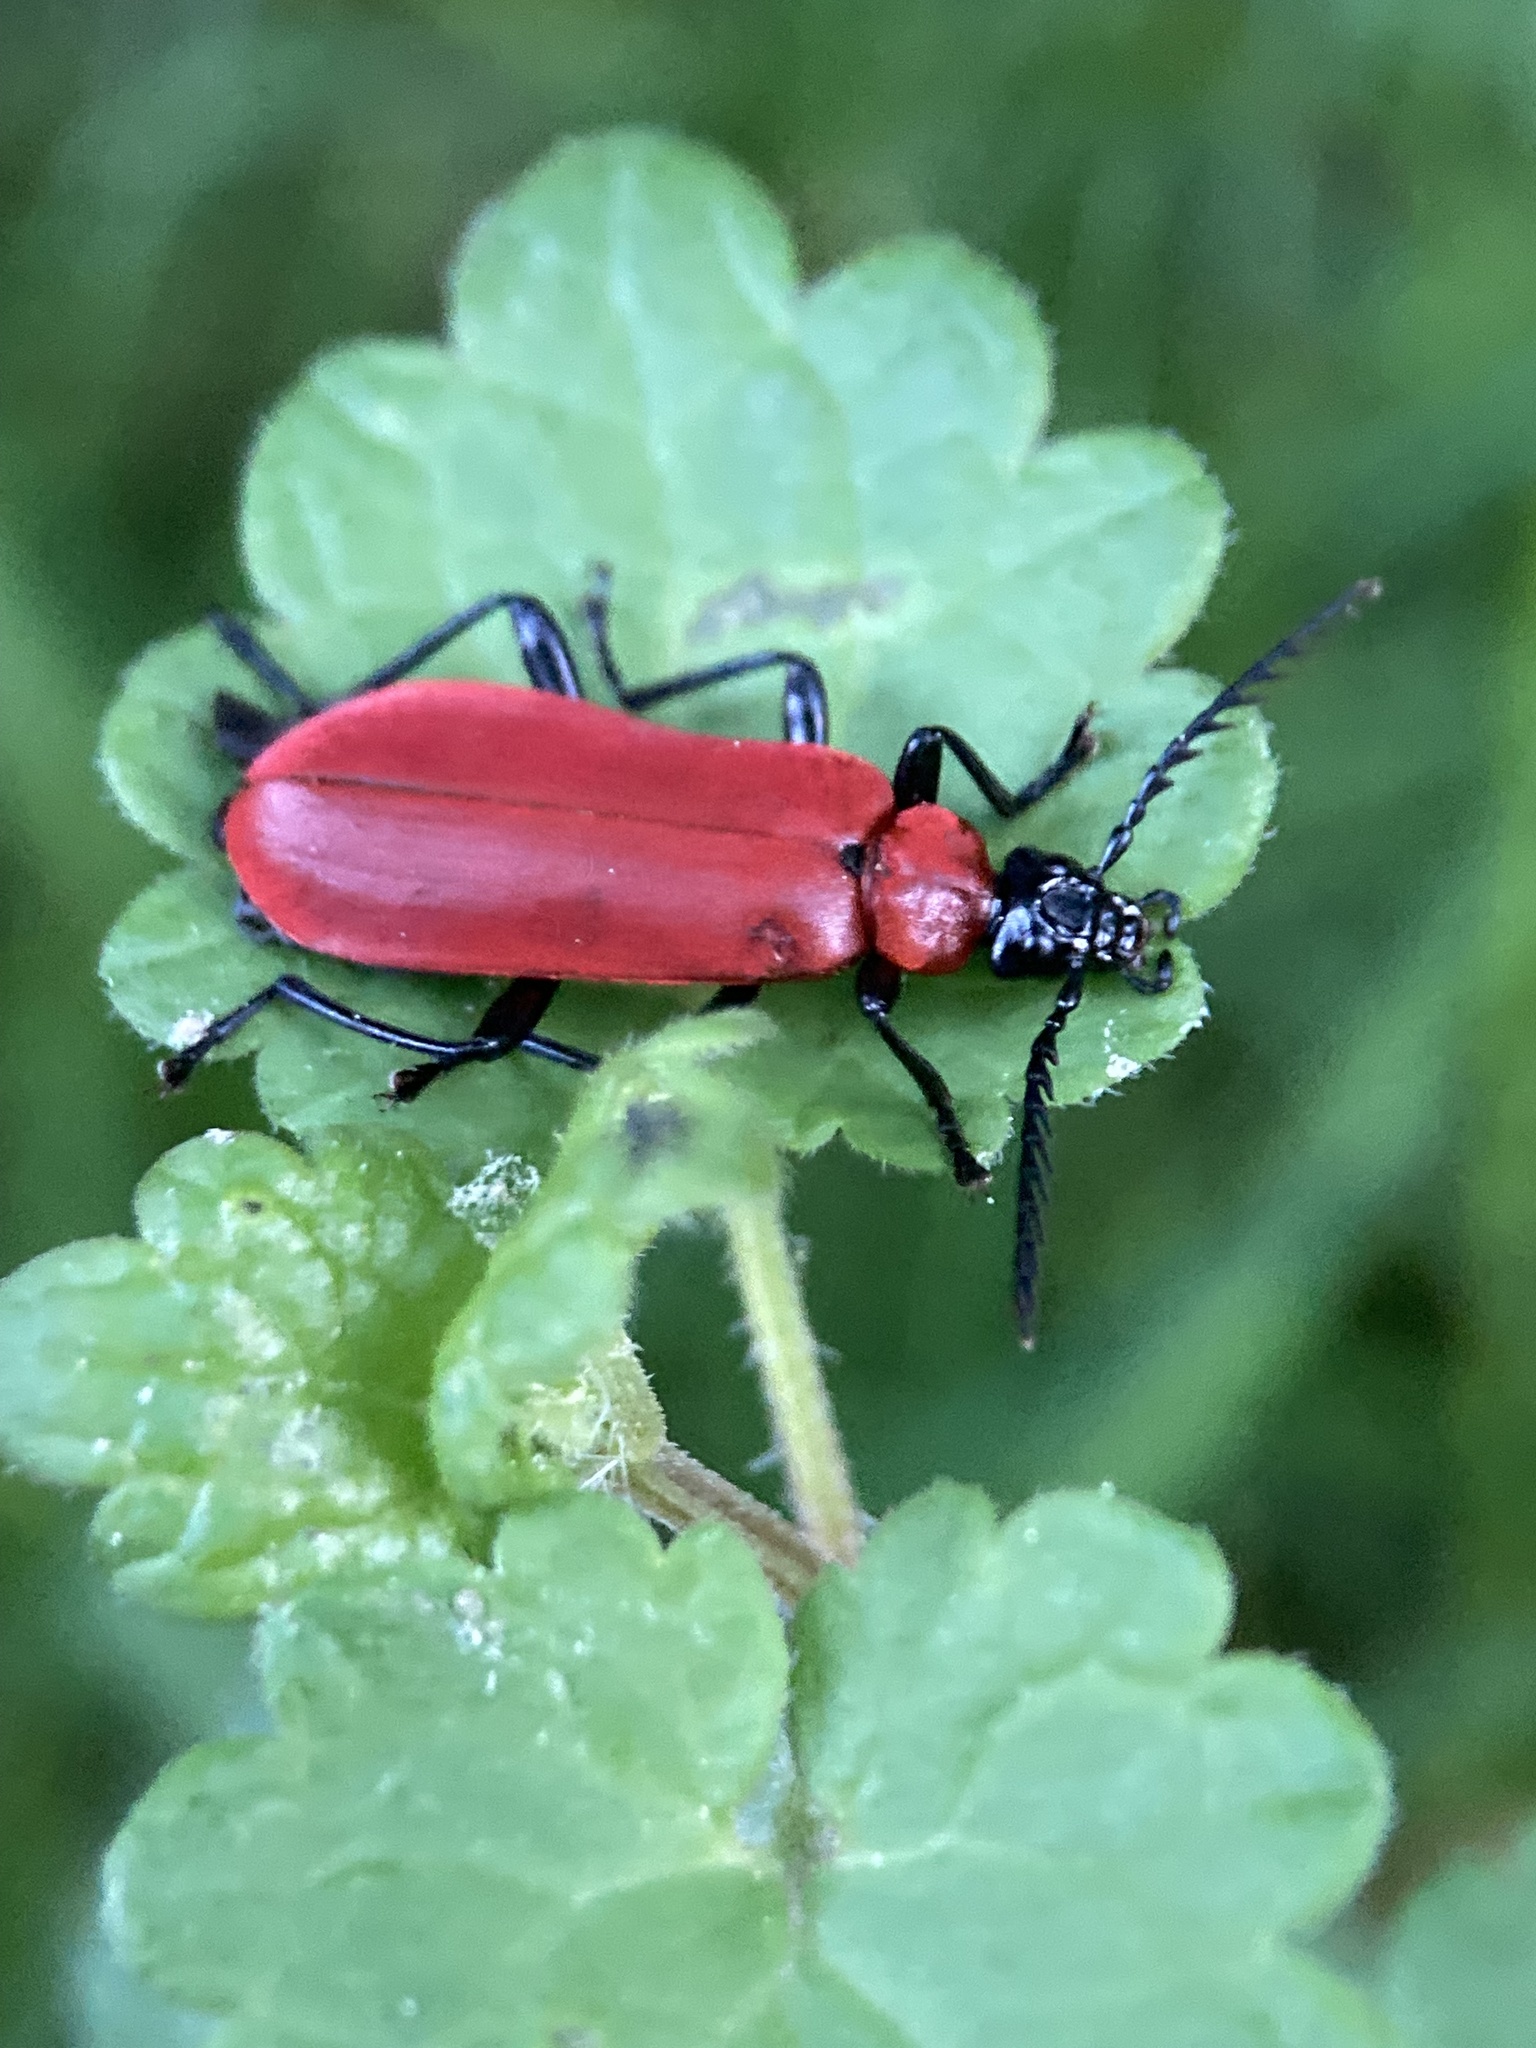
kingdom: Animalia
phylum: Arthropoda
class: Insecta
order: Coleoptera
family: Pyrochroidae
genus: Pyrochroa
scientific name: Pyrochroa coccinea
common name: Black-headed cardinal beetle
